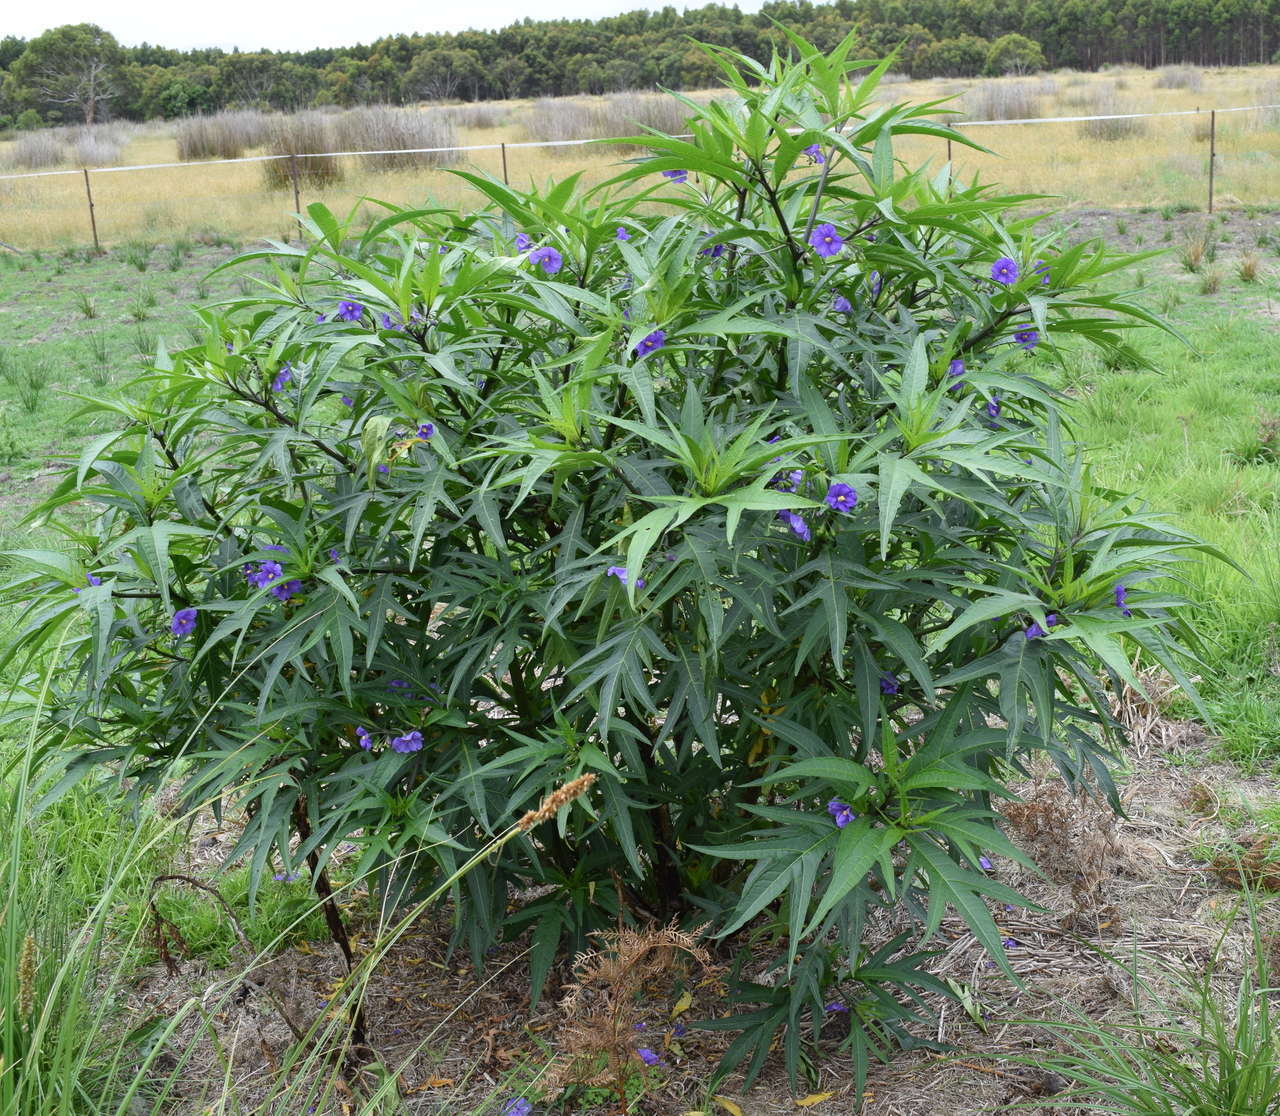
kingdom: Plantae
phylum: Tracheophyta
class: Magnoliopsida
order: Solanales
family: Solanaceae
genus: Solanum
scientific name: Solanum laciniatum
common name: Kangaroo-apple
